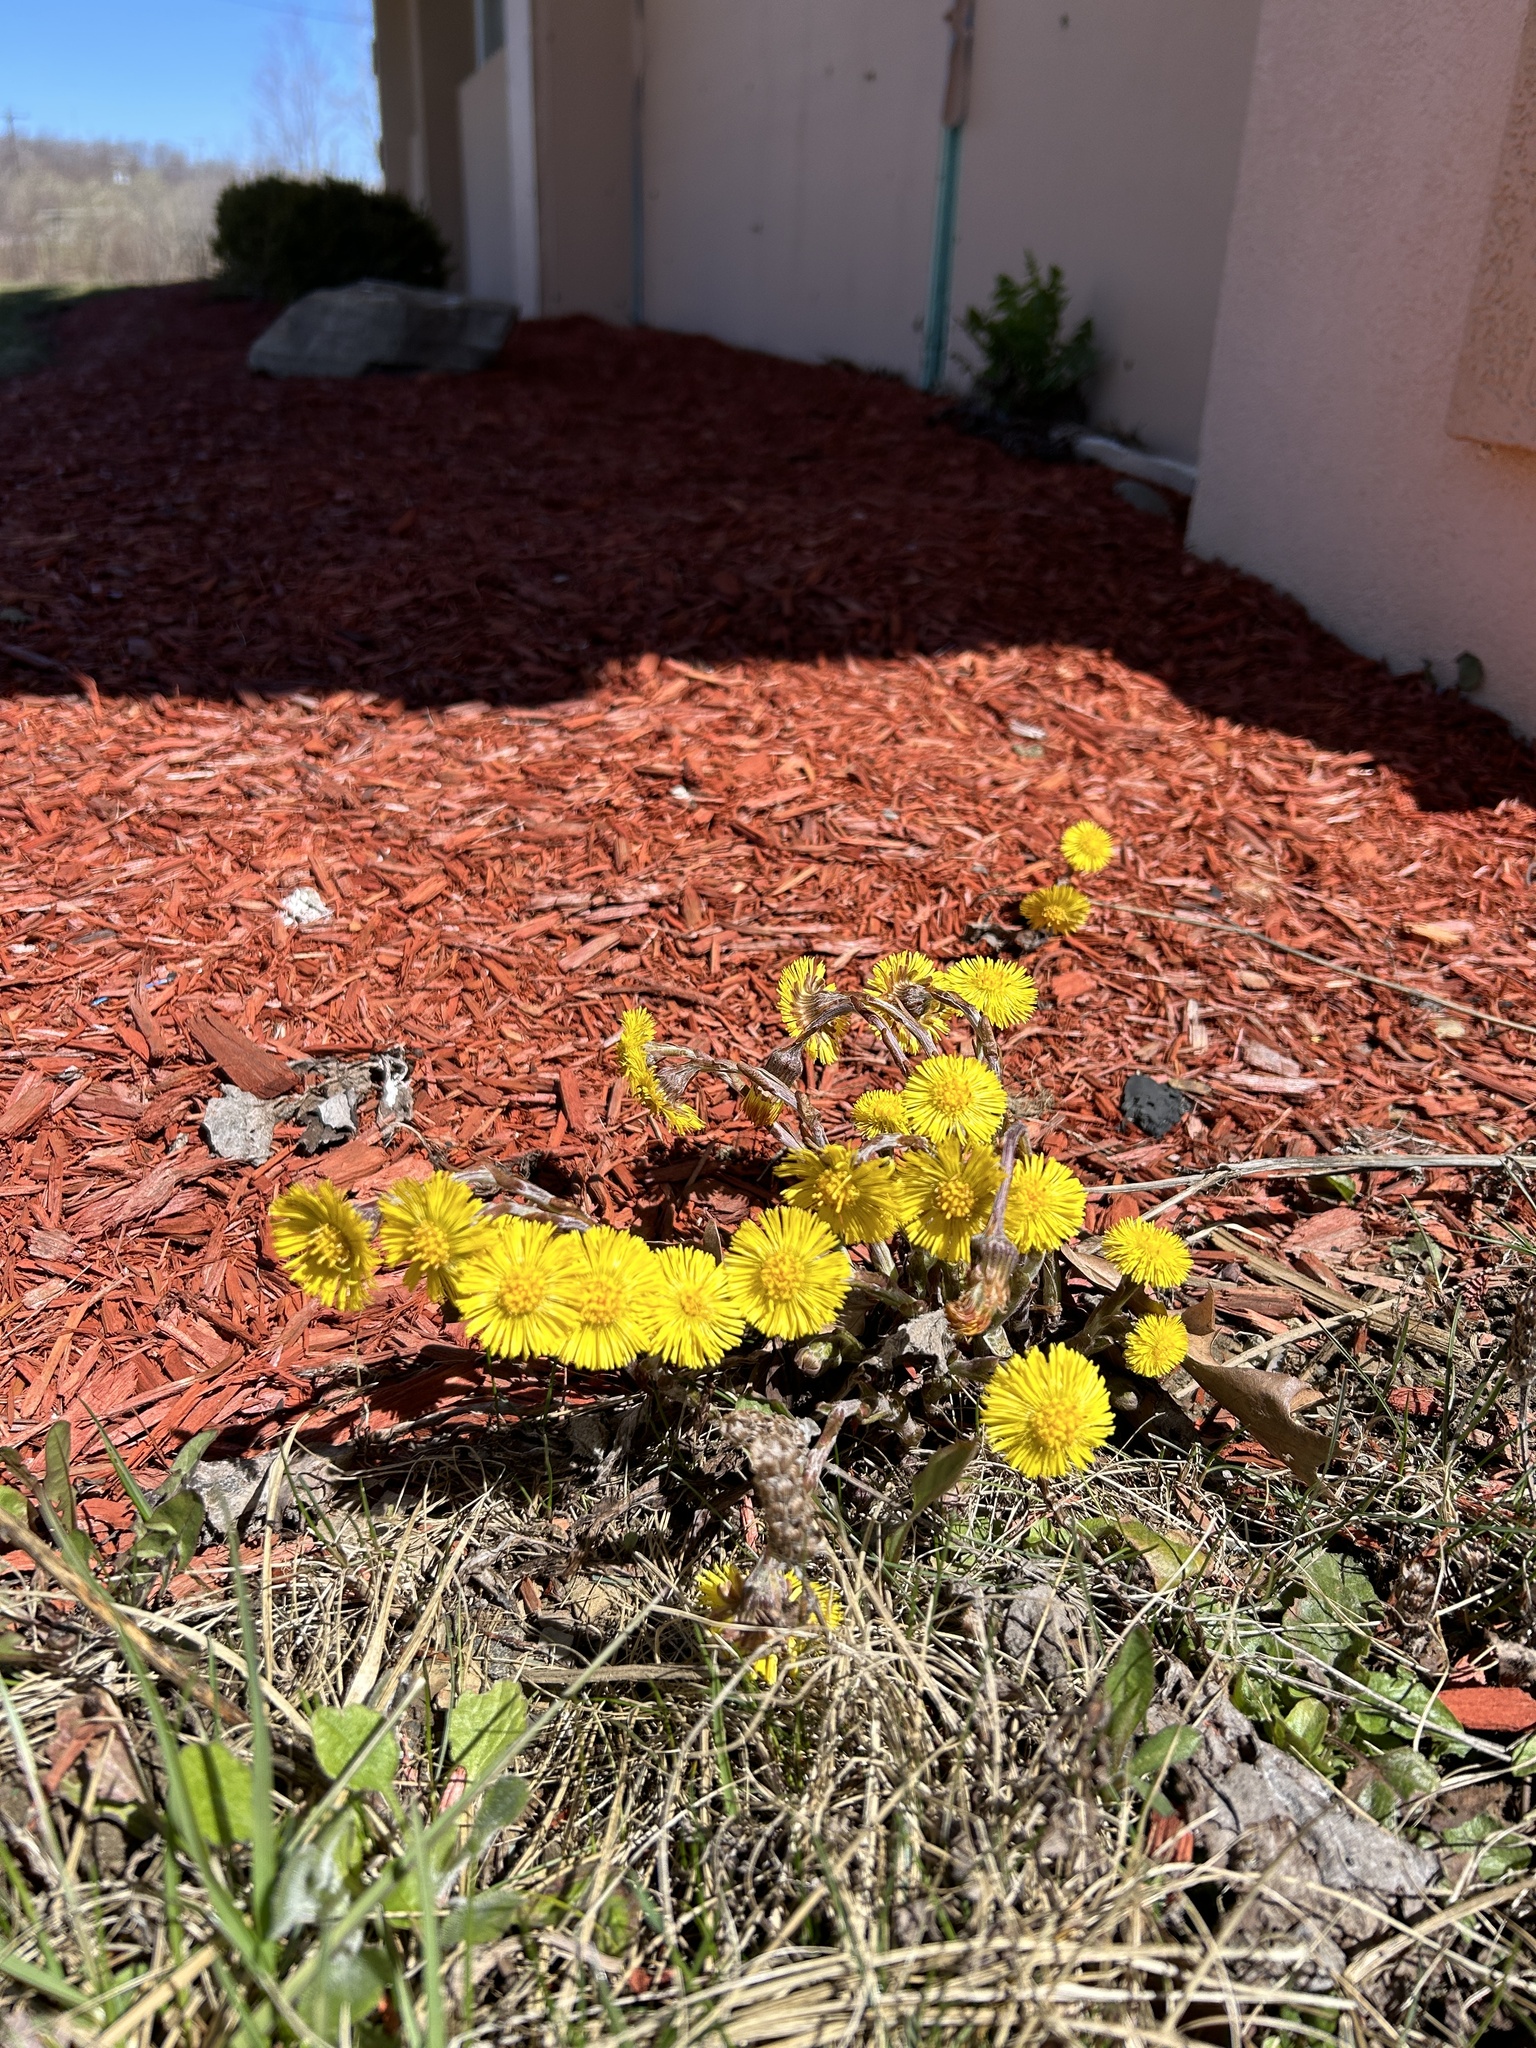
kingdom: Plantae
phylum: Tracheophyta
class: Magnoliopsida
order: Asterales
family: Asteraceae
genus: Tussilago
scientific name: Tussilago farfara
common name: Coltsfoot
